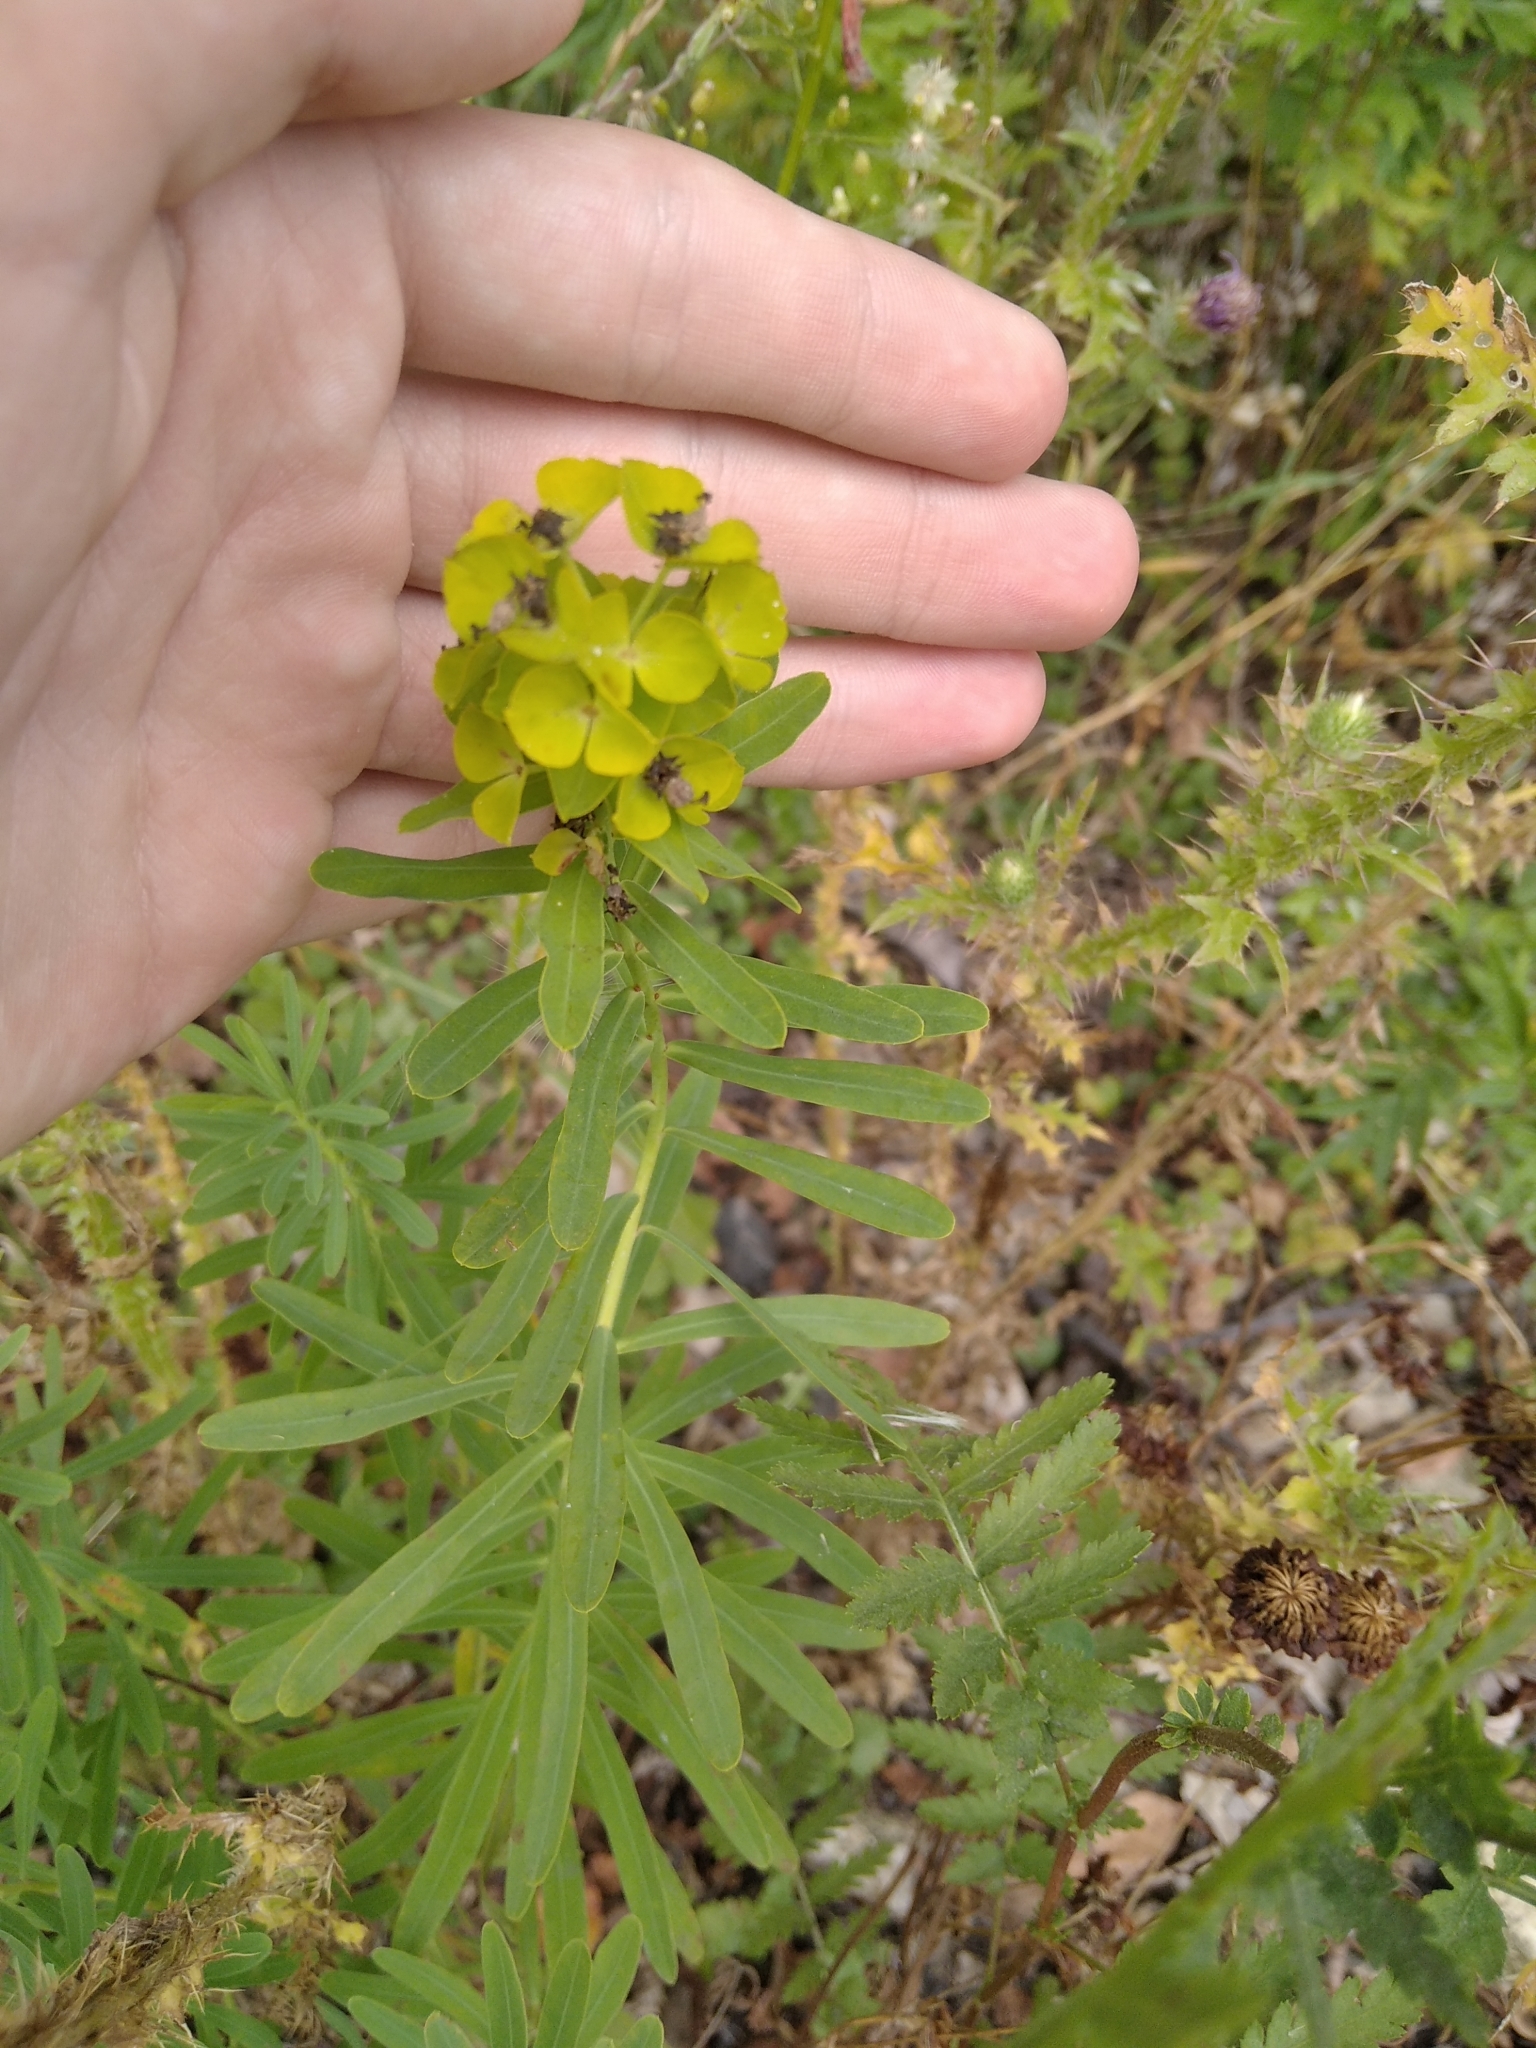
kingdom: Plantae
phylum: Tracheophyta
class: Magnoliopsida
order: Malpighiales
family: Euphorbiaceae
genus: Euphorbia
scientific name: Euphorbia virgata
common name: Leafy spurge
